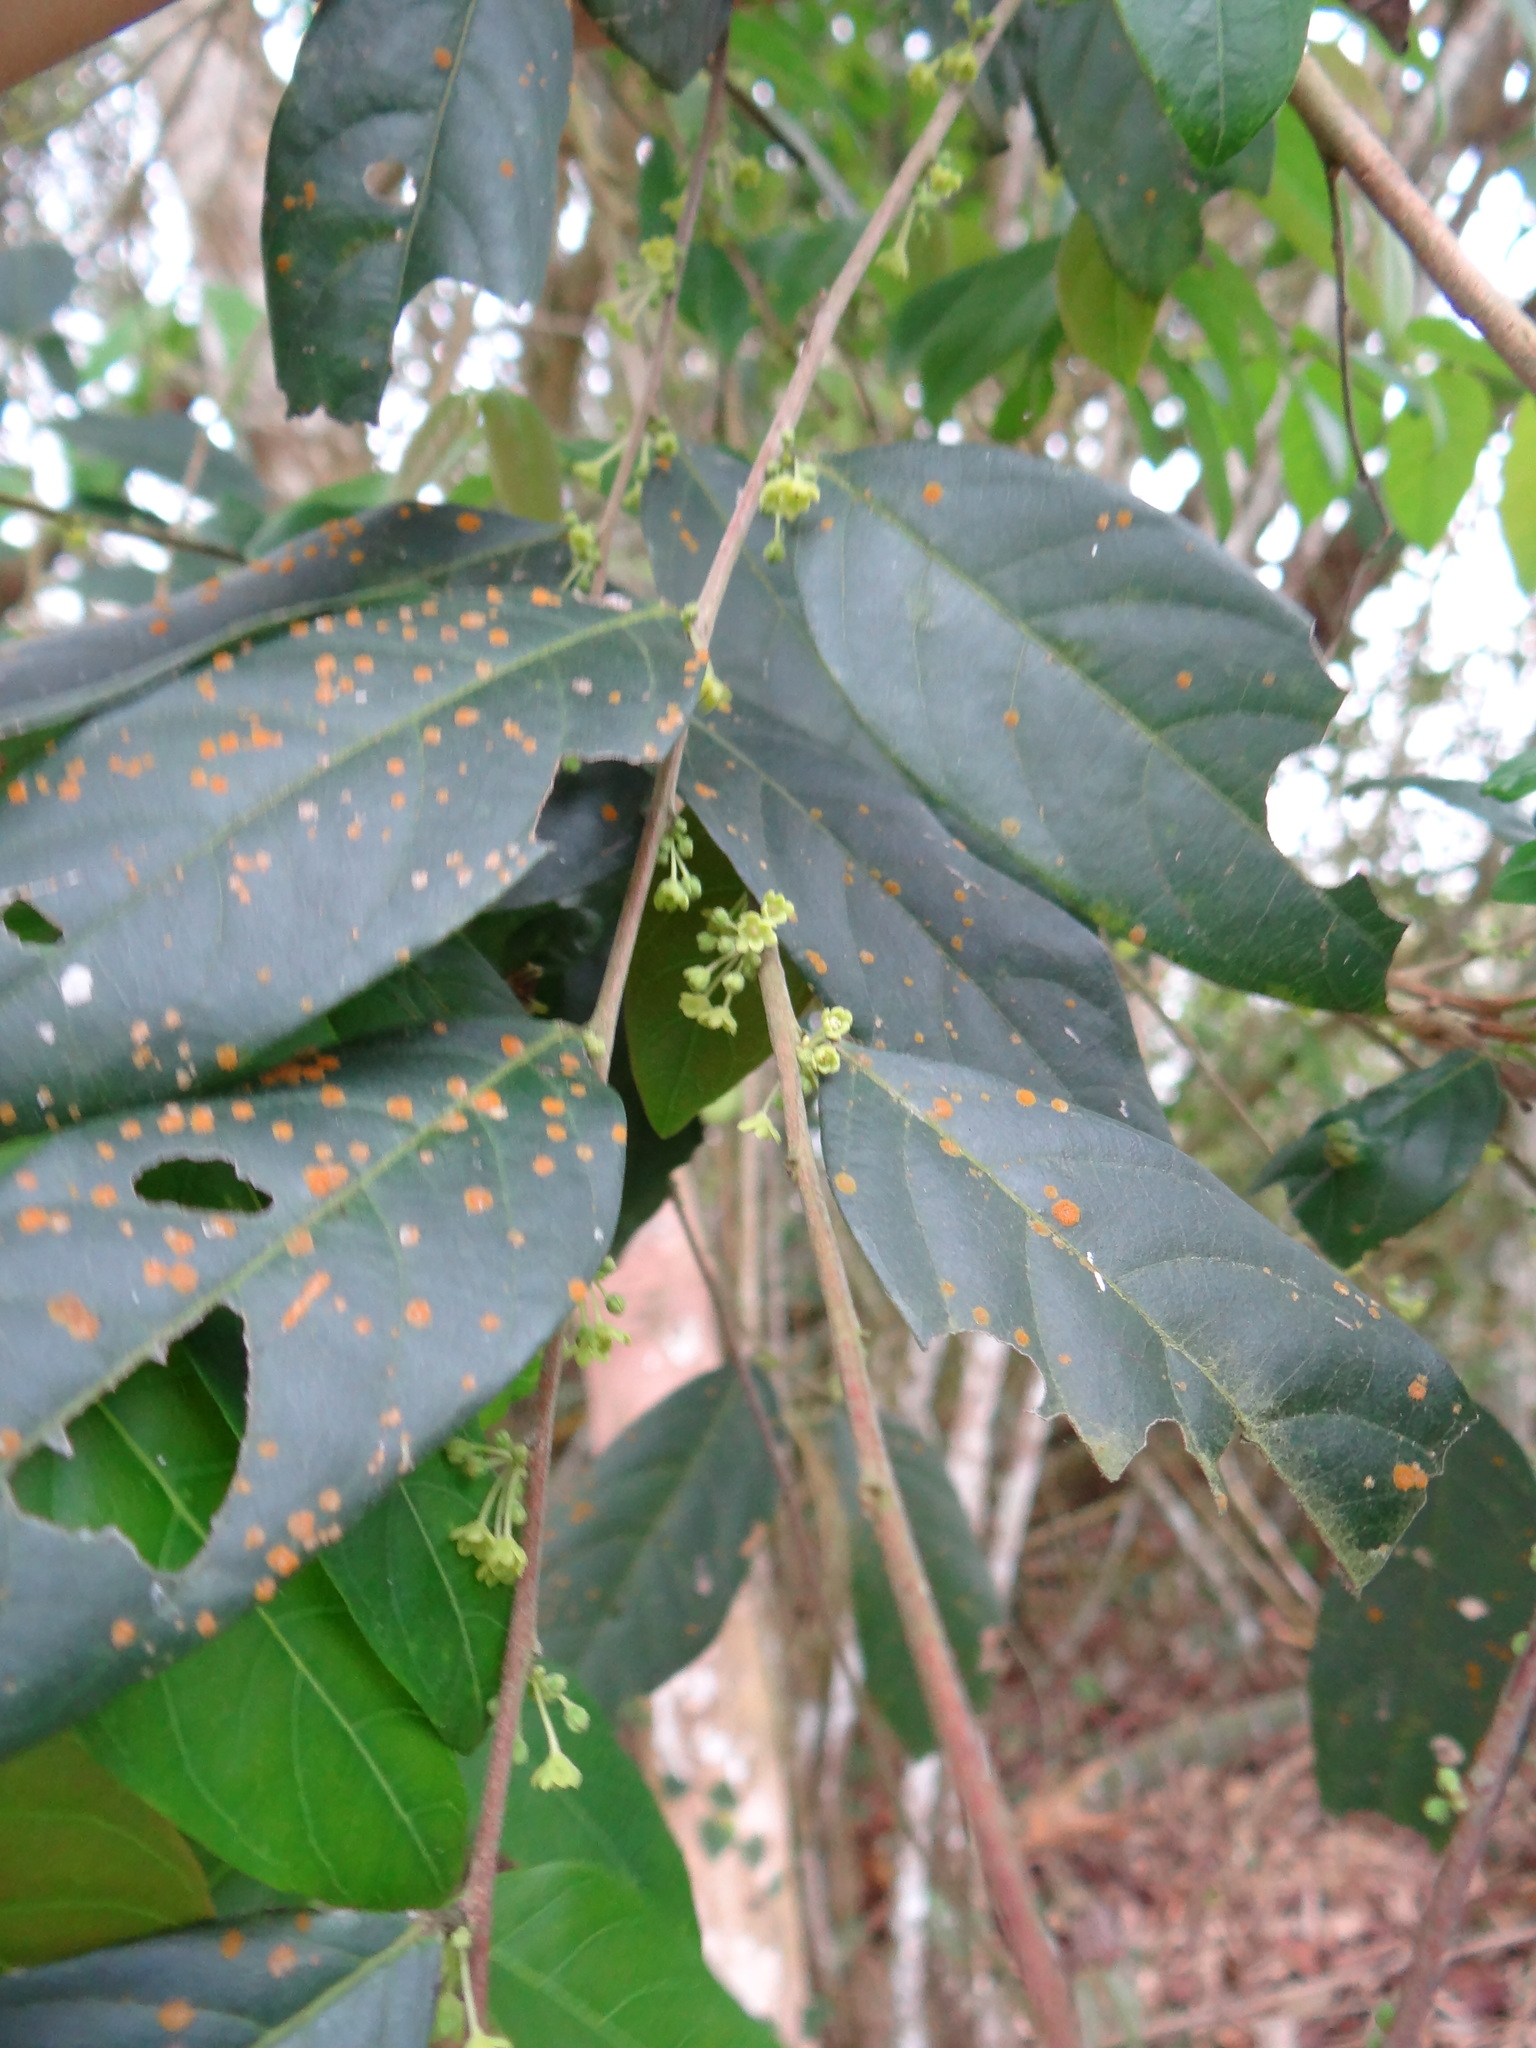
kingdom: Plantae
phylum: Tracheophyta
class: Magnoliopsida
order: Malpighiales
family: Phyllanthaceae
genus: Glochidion
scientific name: Glochidion acuminatum
